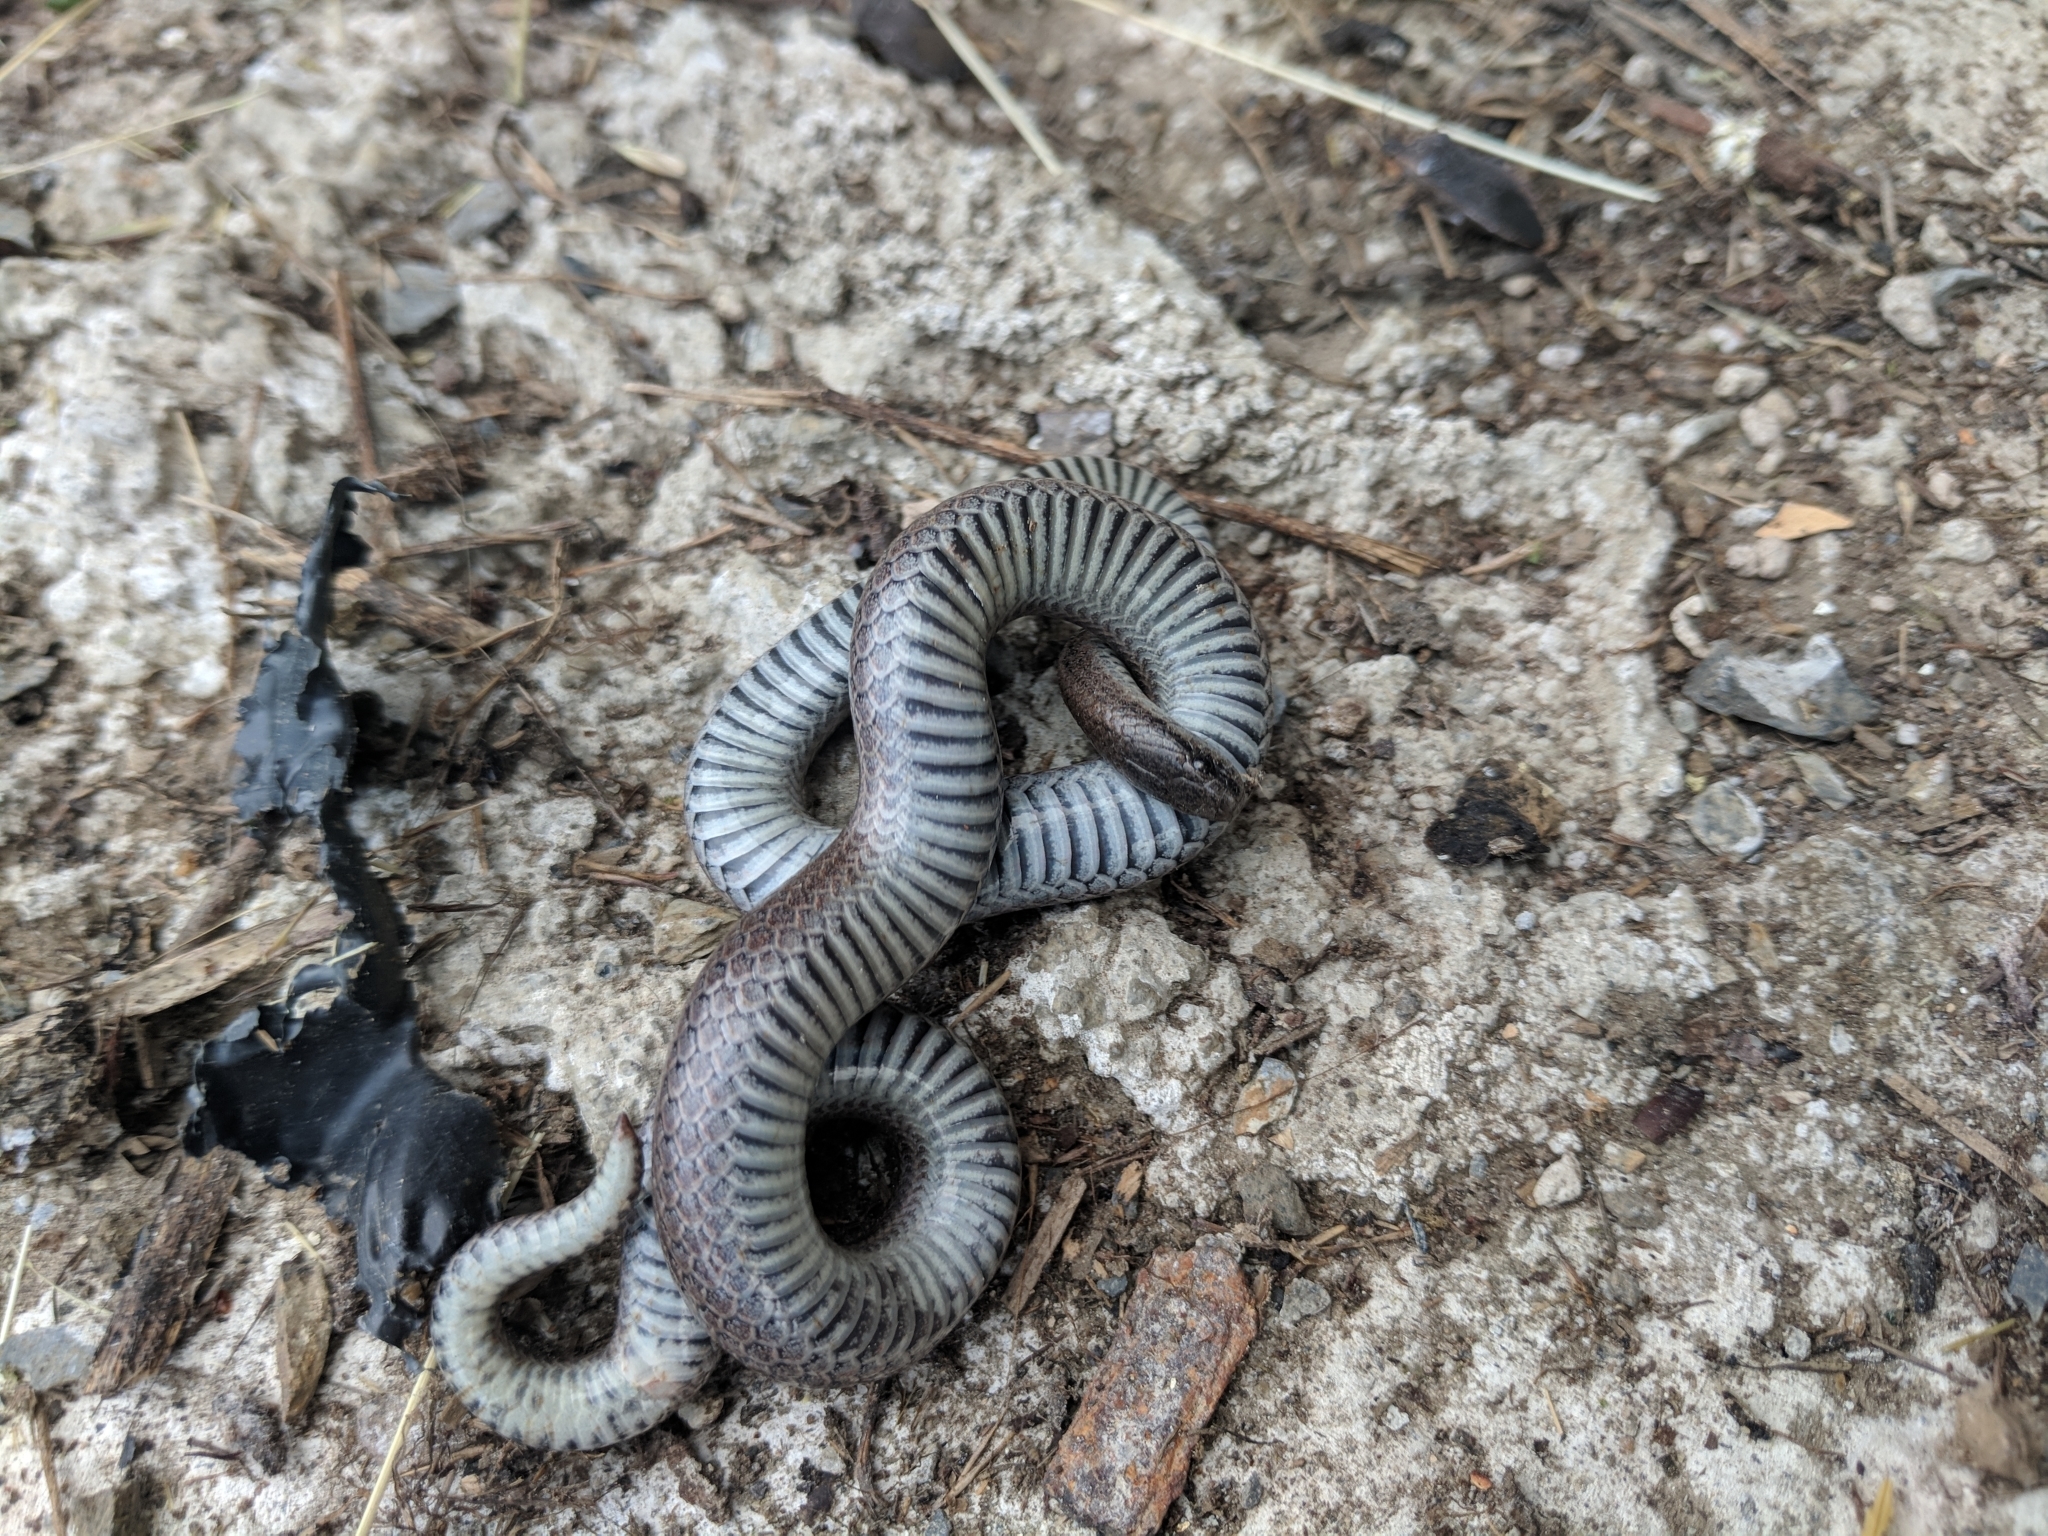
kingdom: Animalia
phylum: Chordata
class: Squamata
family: Colubridae
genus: Contia
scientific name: Contia tenuis
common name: Sharptail snake
